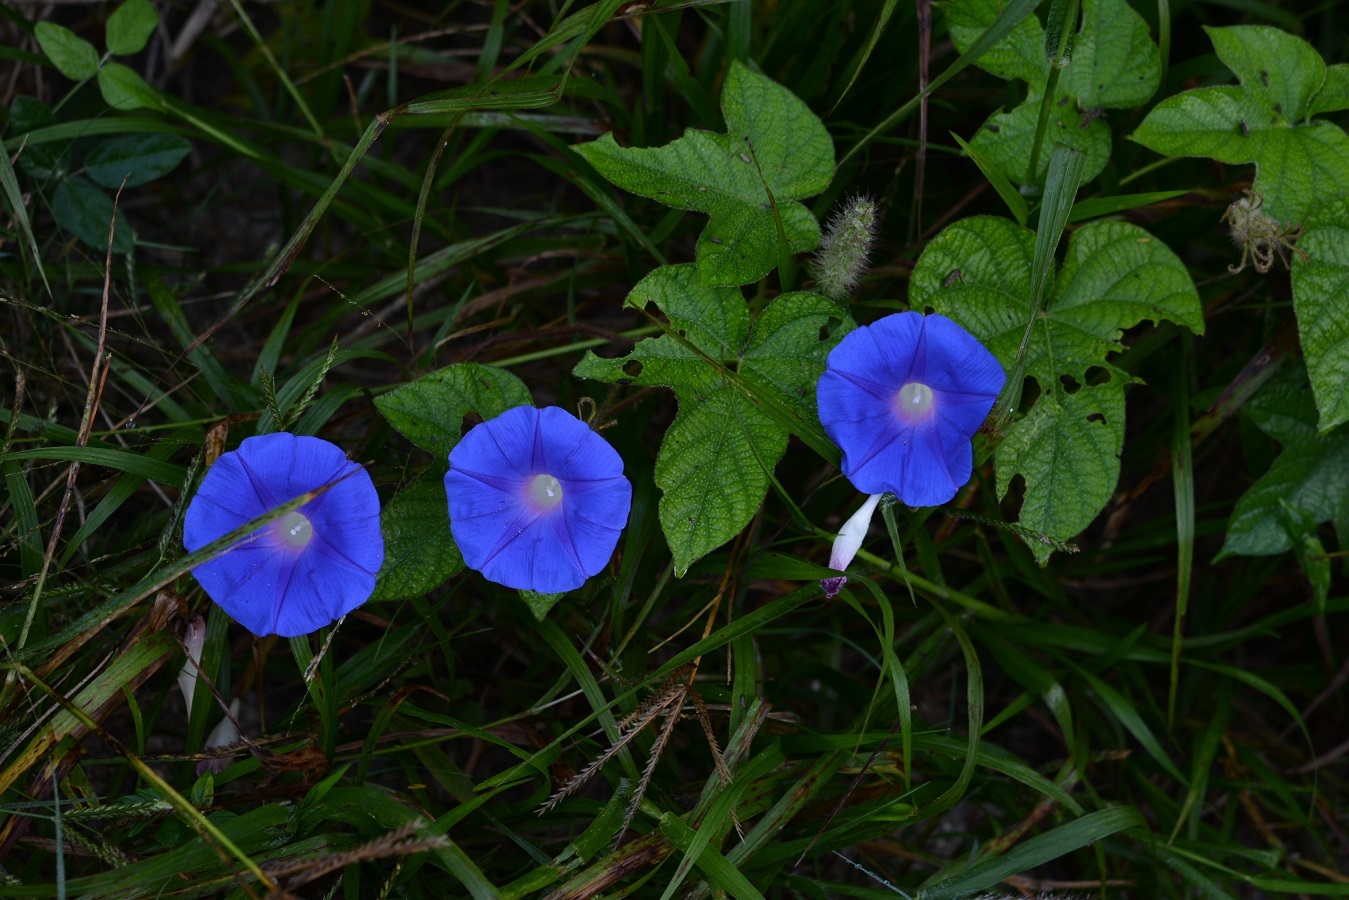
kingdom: Plantae
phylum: Tracheophyta
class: Magnoliopsida
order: Solanales
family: Convolvulaceae
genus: Ipomoea
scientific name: Ipomoea hederacea
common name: Ivy-leaved morning-glory
